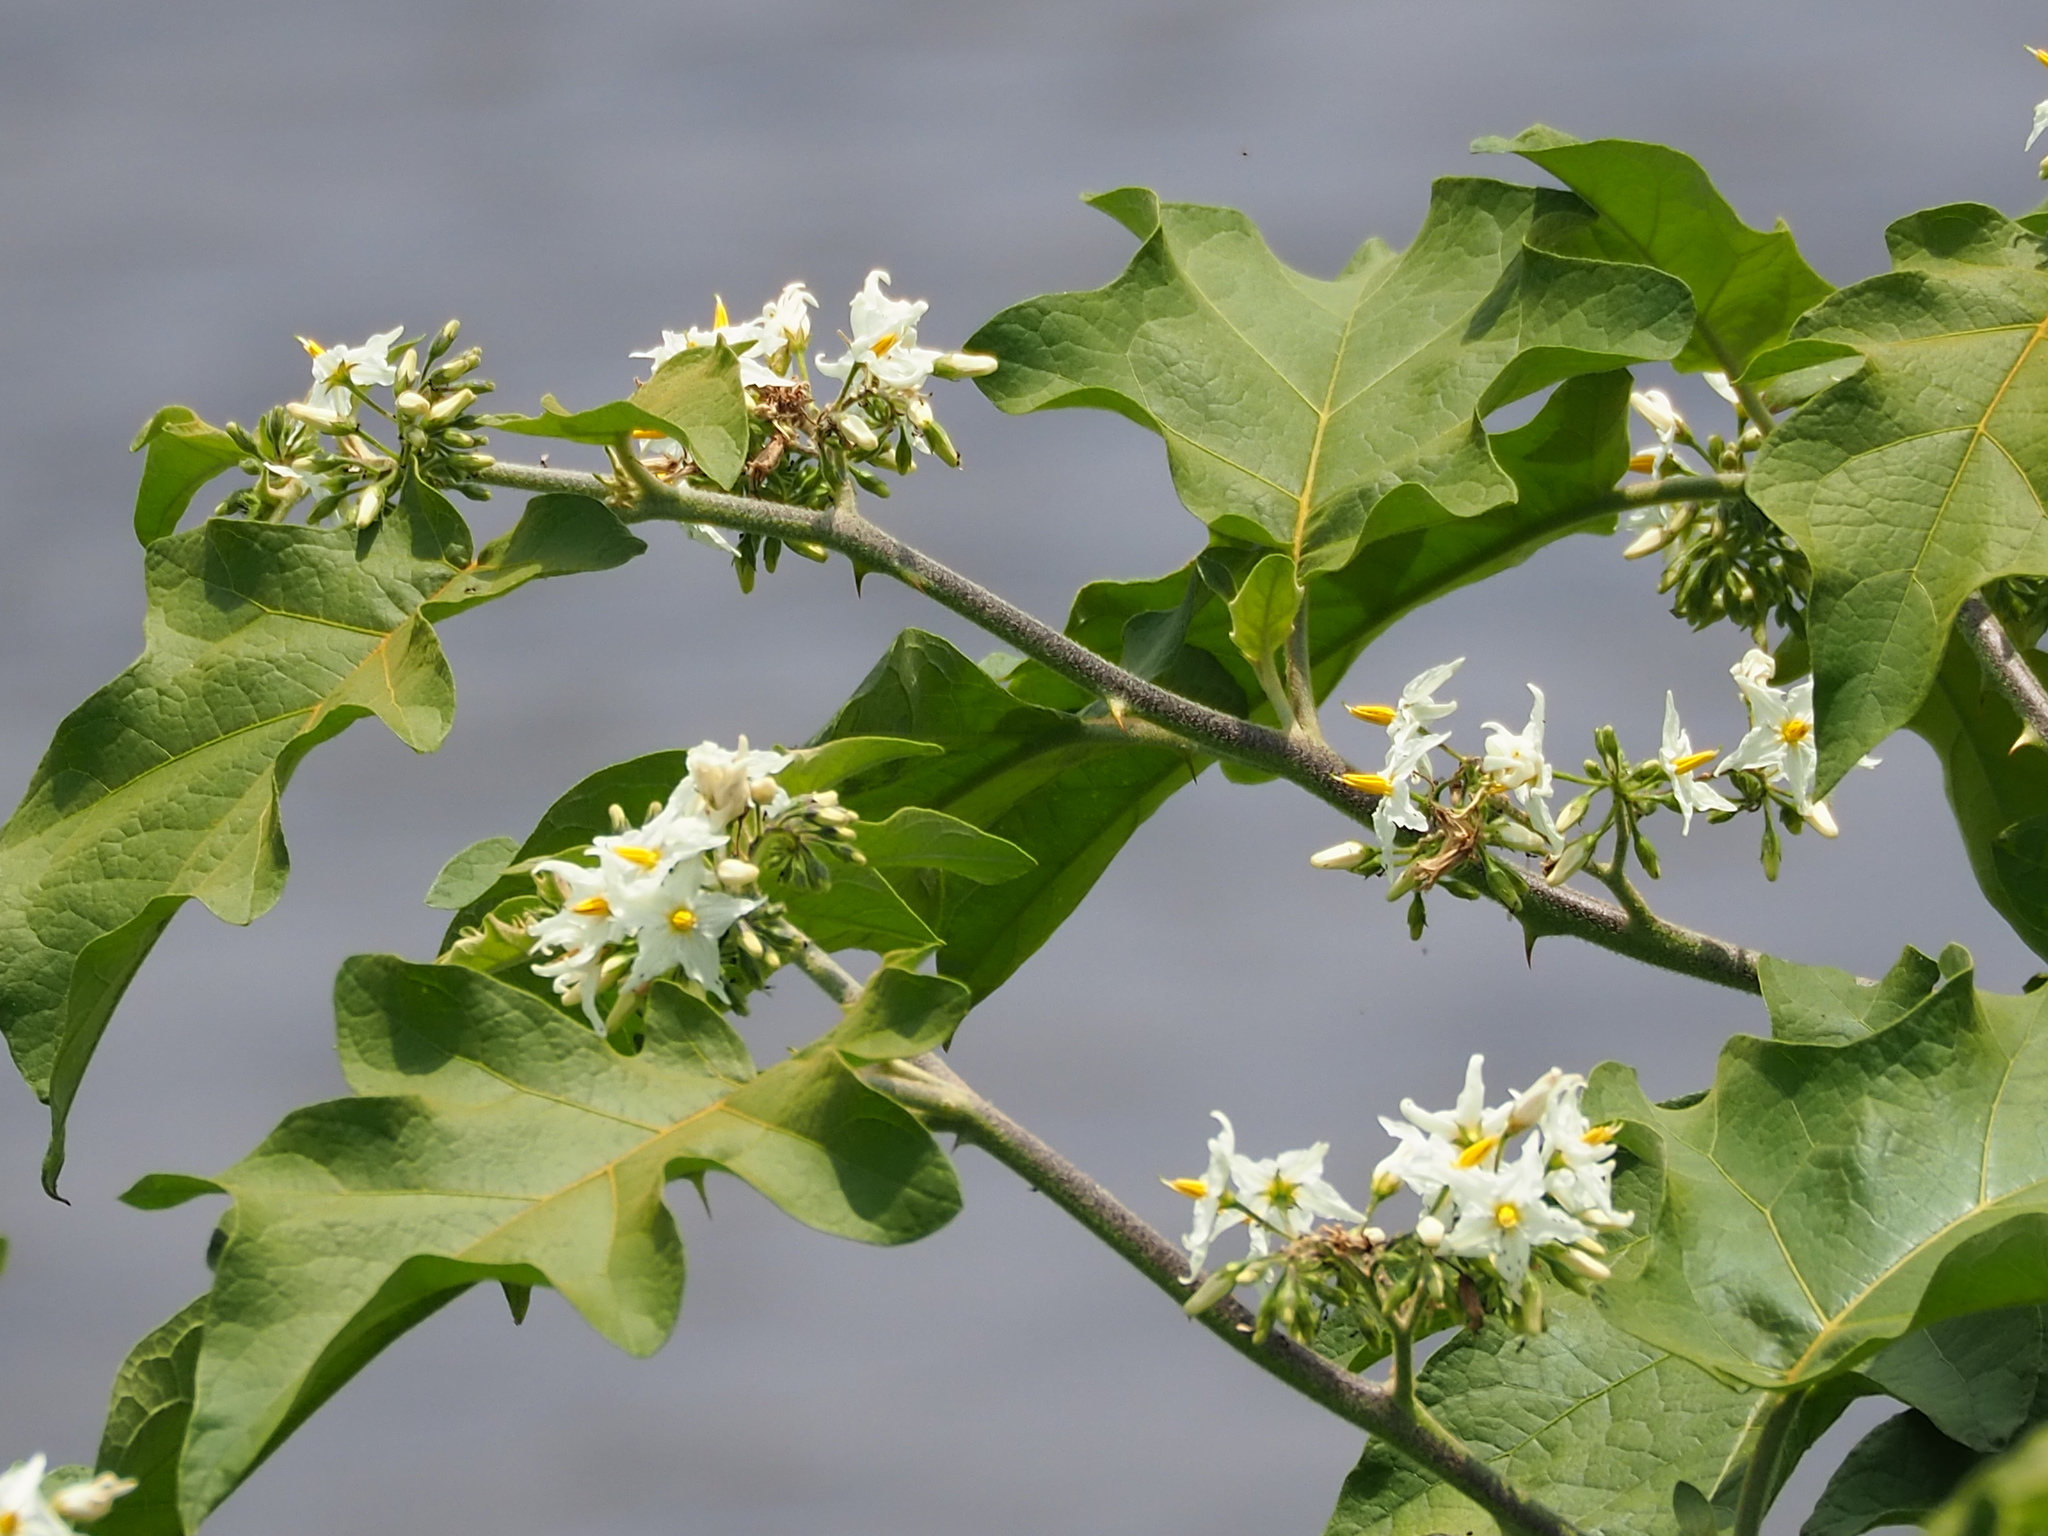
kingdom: Plantae
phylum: Tracheophyta
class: Magnoliopsida
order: Solanales
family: Solanaceae
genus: Solanum
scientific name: Solanum torvum
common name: Turkey berry
